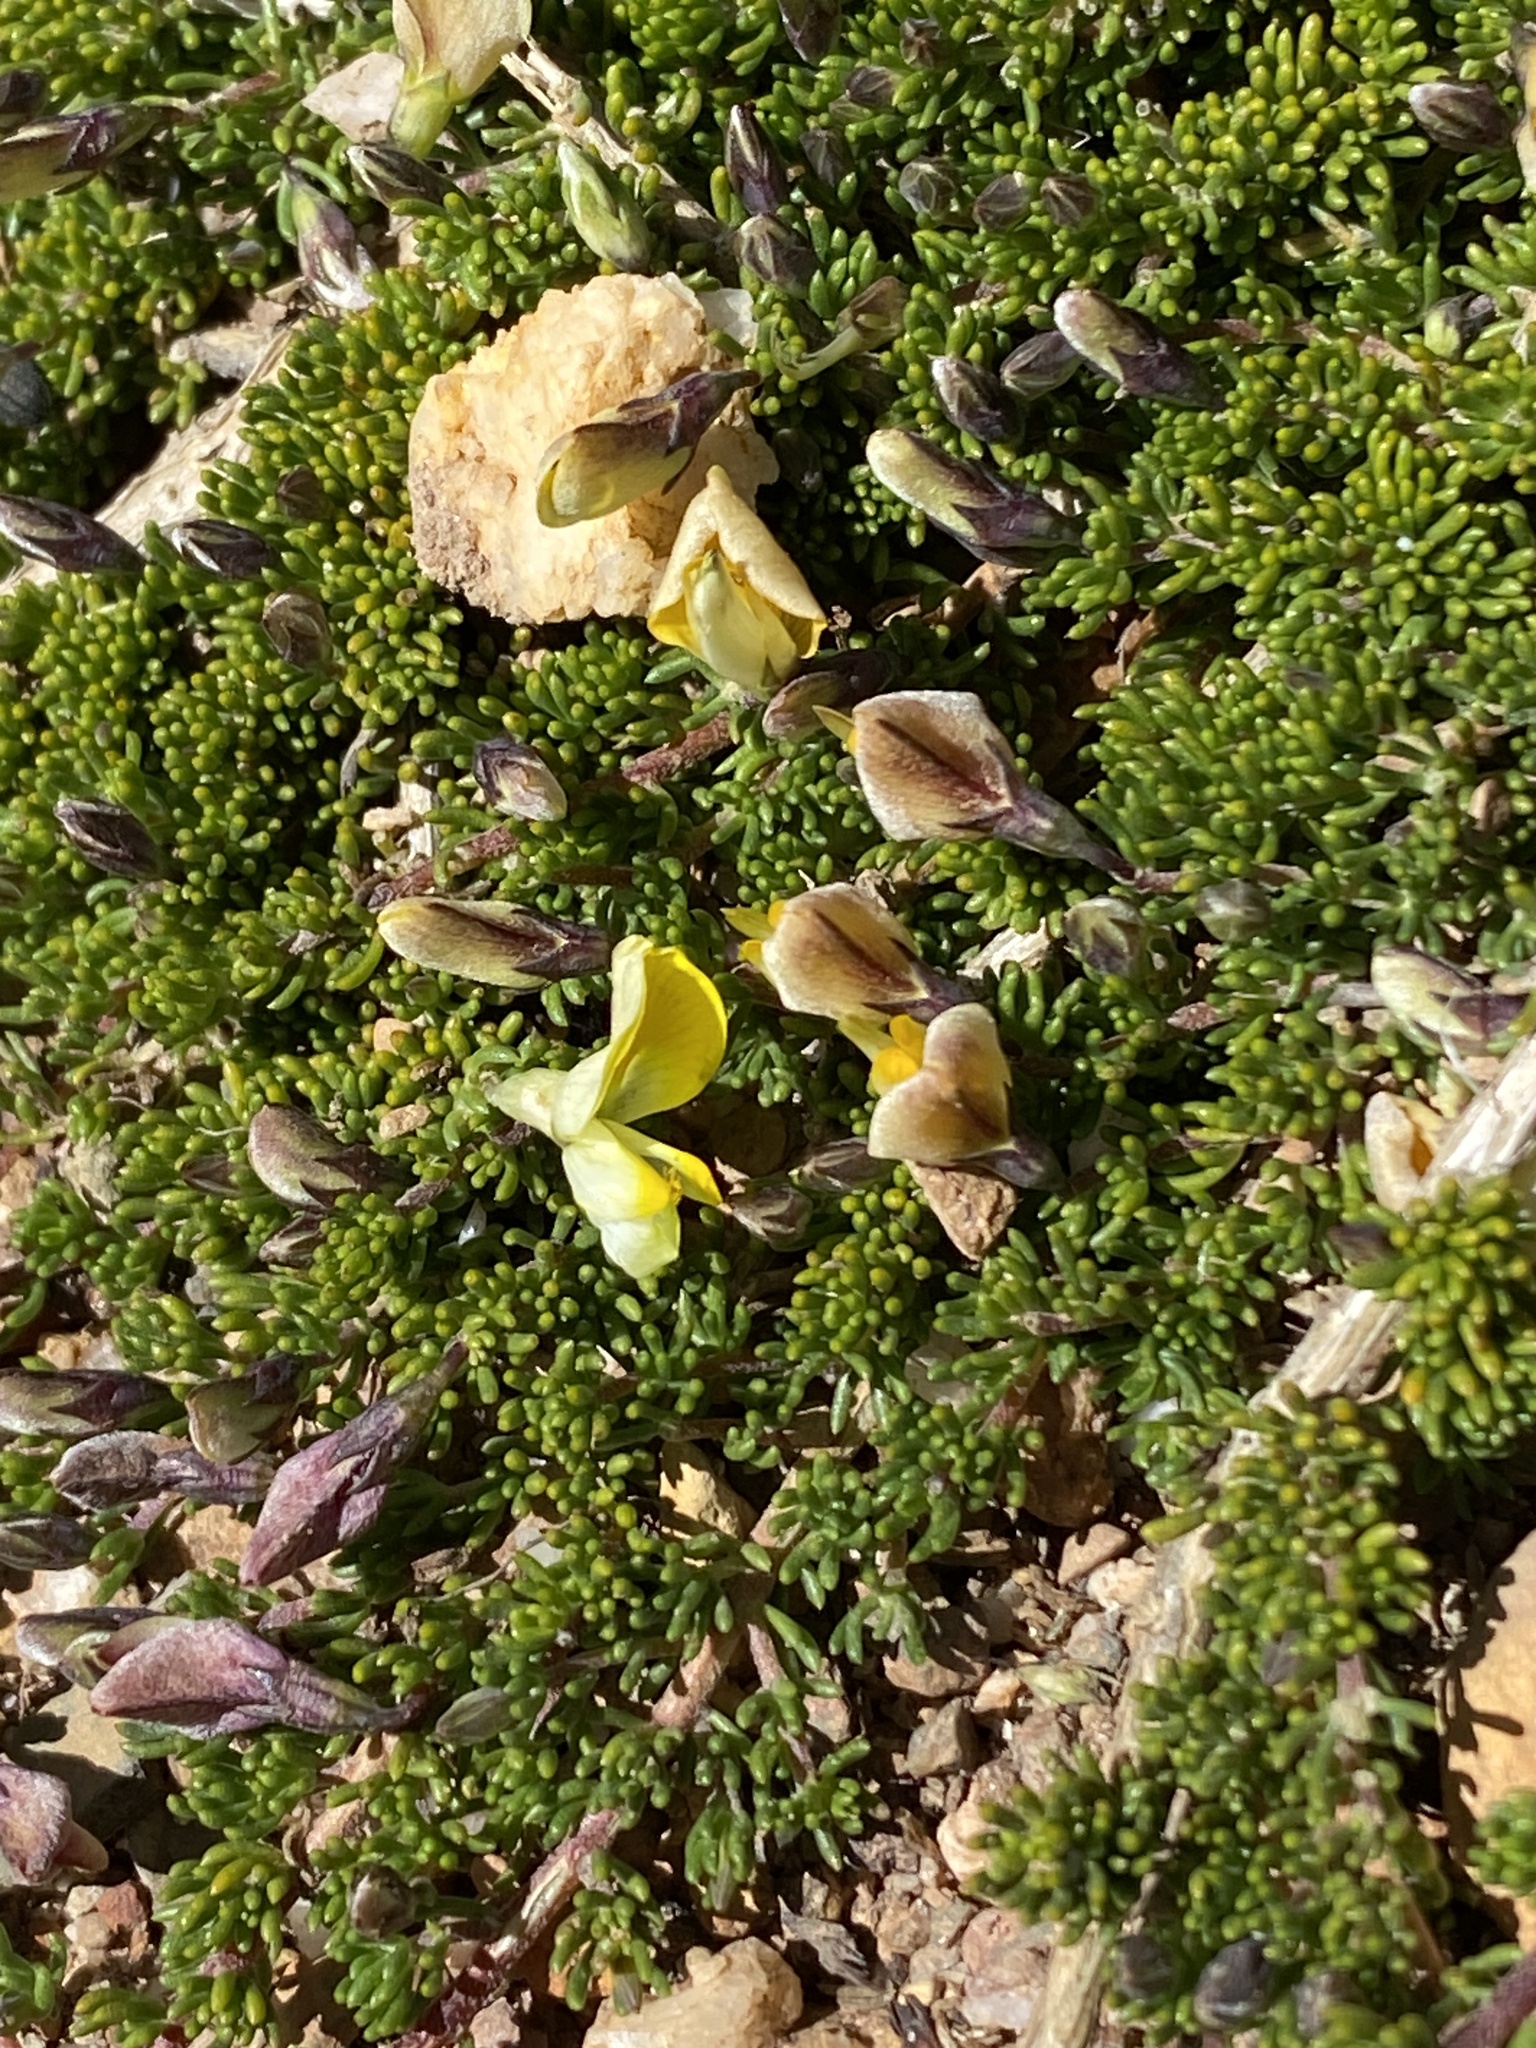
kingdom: Plantae
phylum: Tracheophyta
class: Magnoliopsida
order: Fabales
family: Fabaceae
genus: Aspalathus
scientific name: Aspalathus pedicellata
